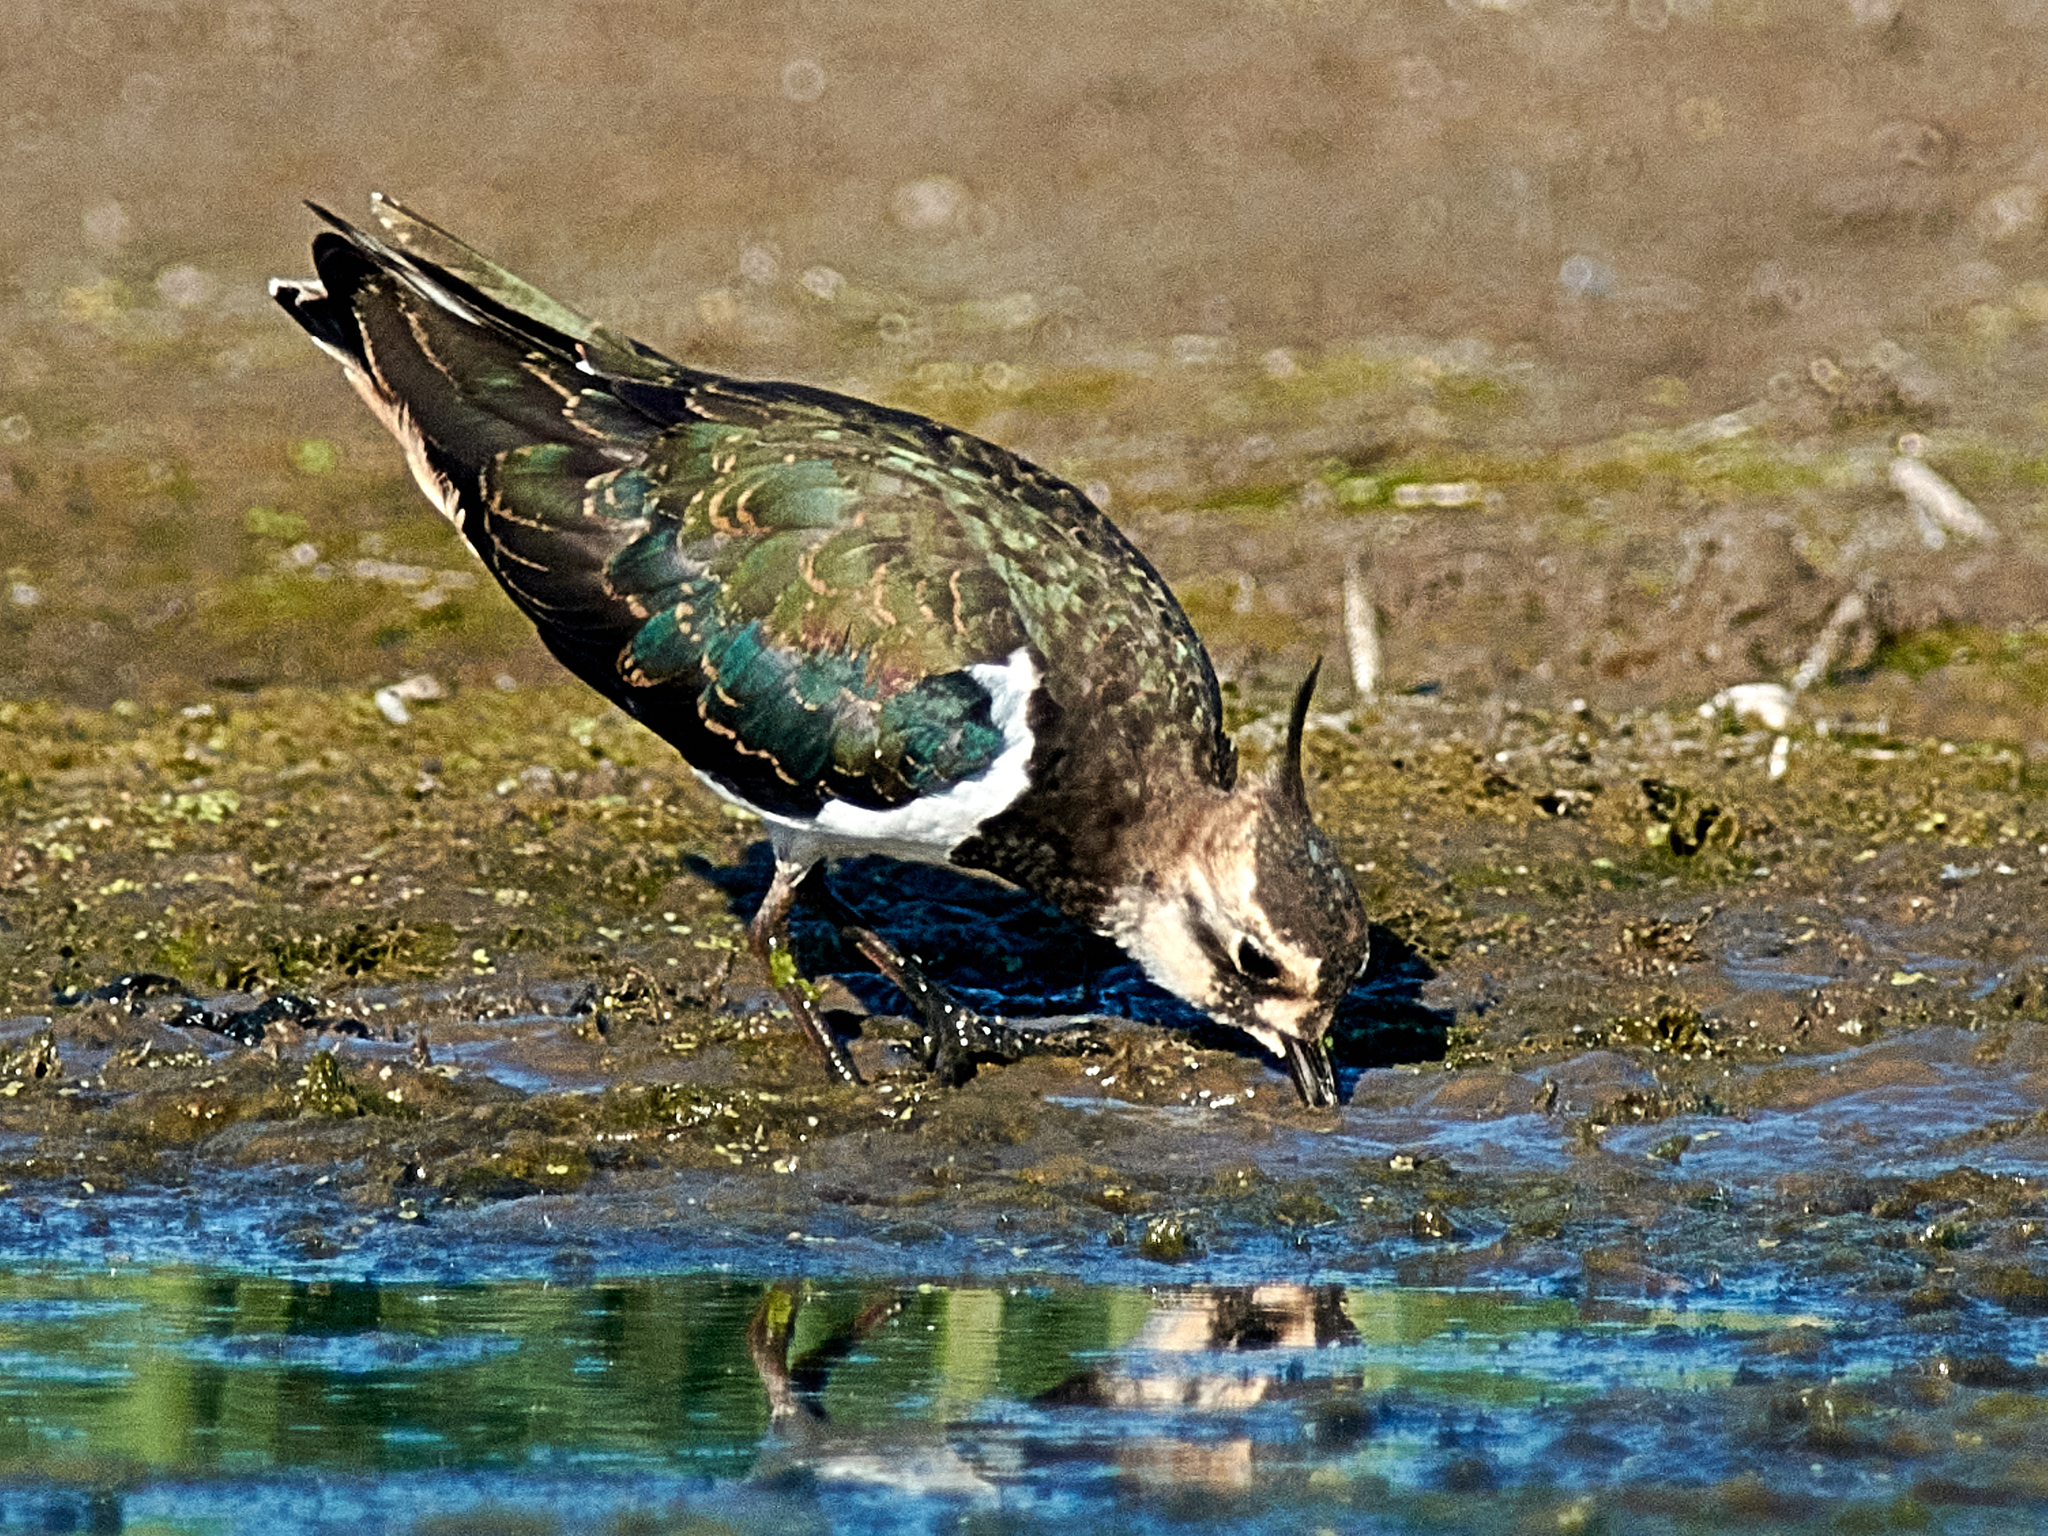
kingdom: Animalia
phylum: Chordata
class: Aves
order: Charadriiformes
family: Charadriidae
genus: Vanellus
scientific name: Vanellus vanellus
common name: Northern lapwing
